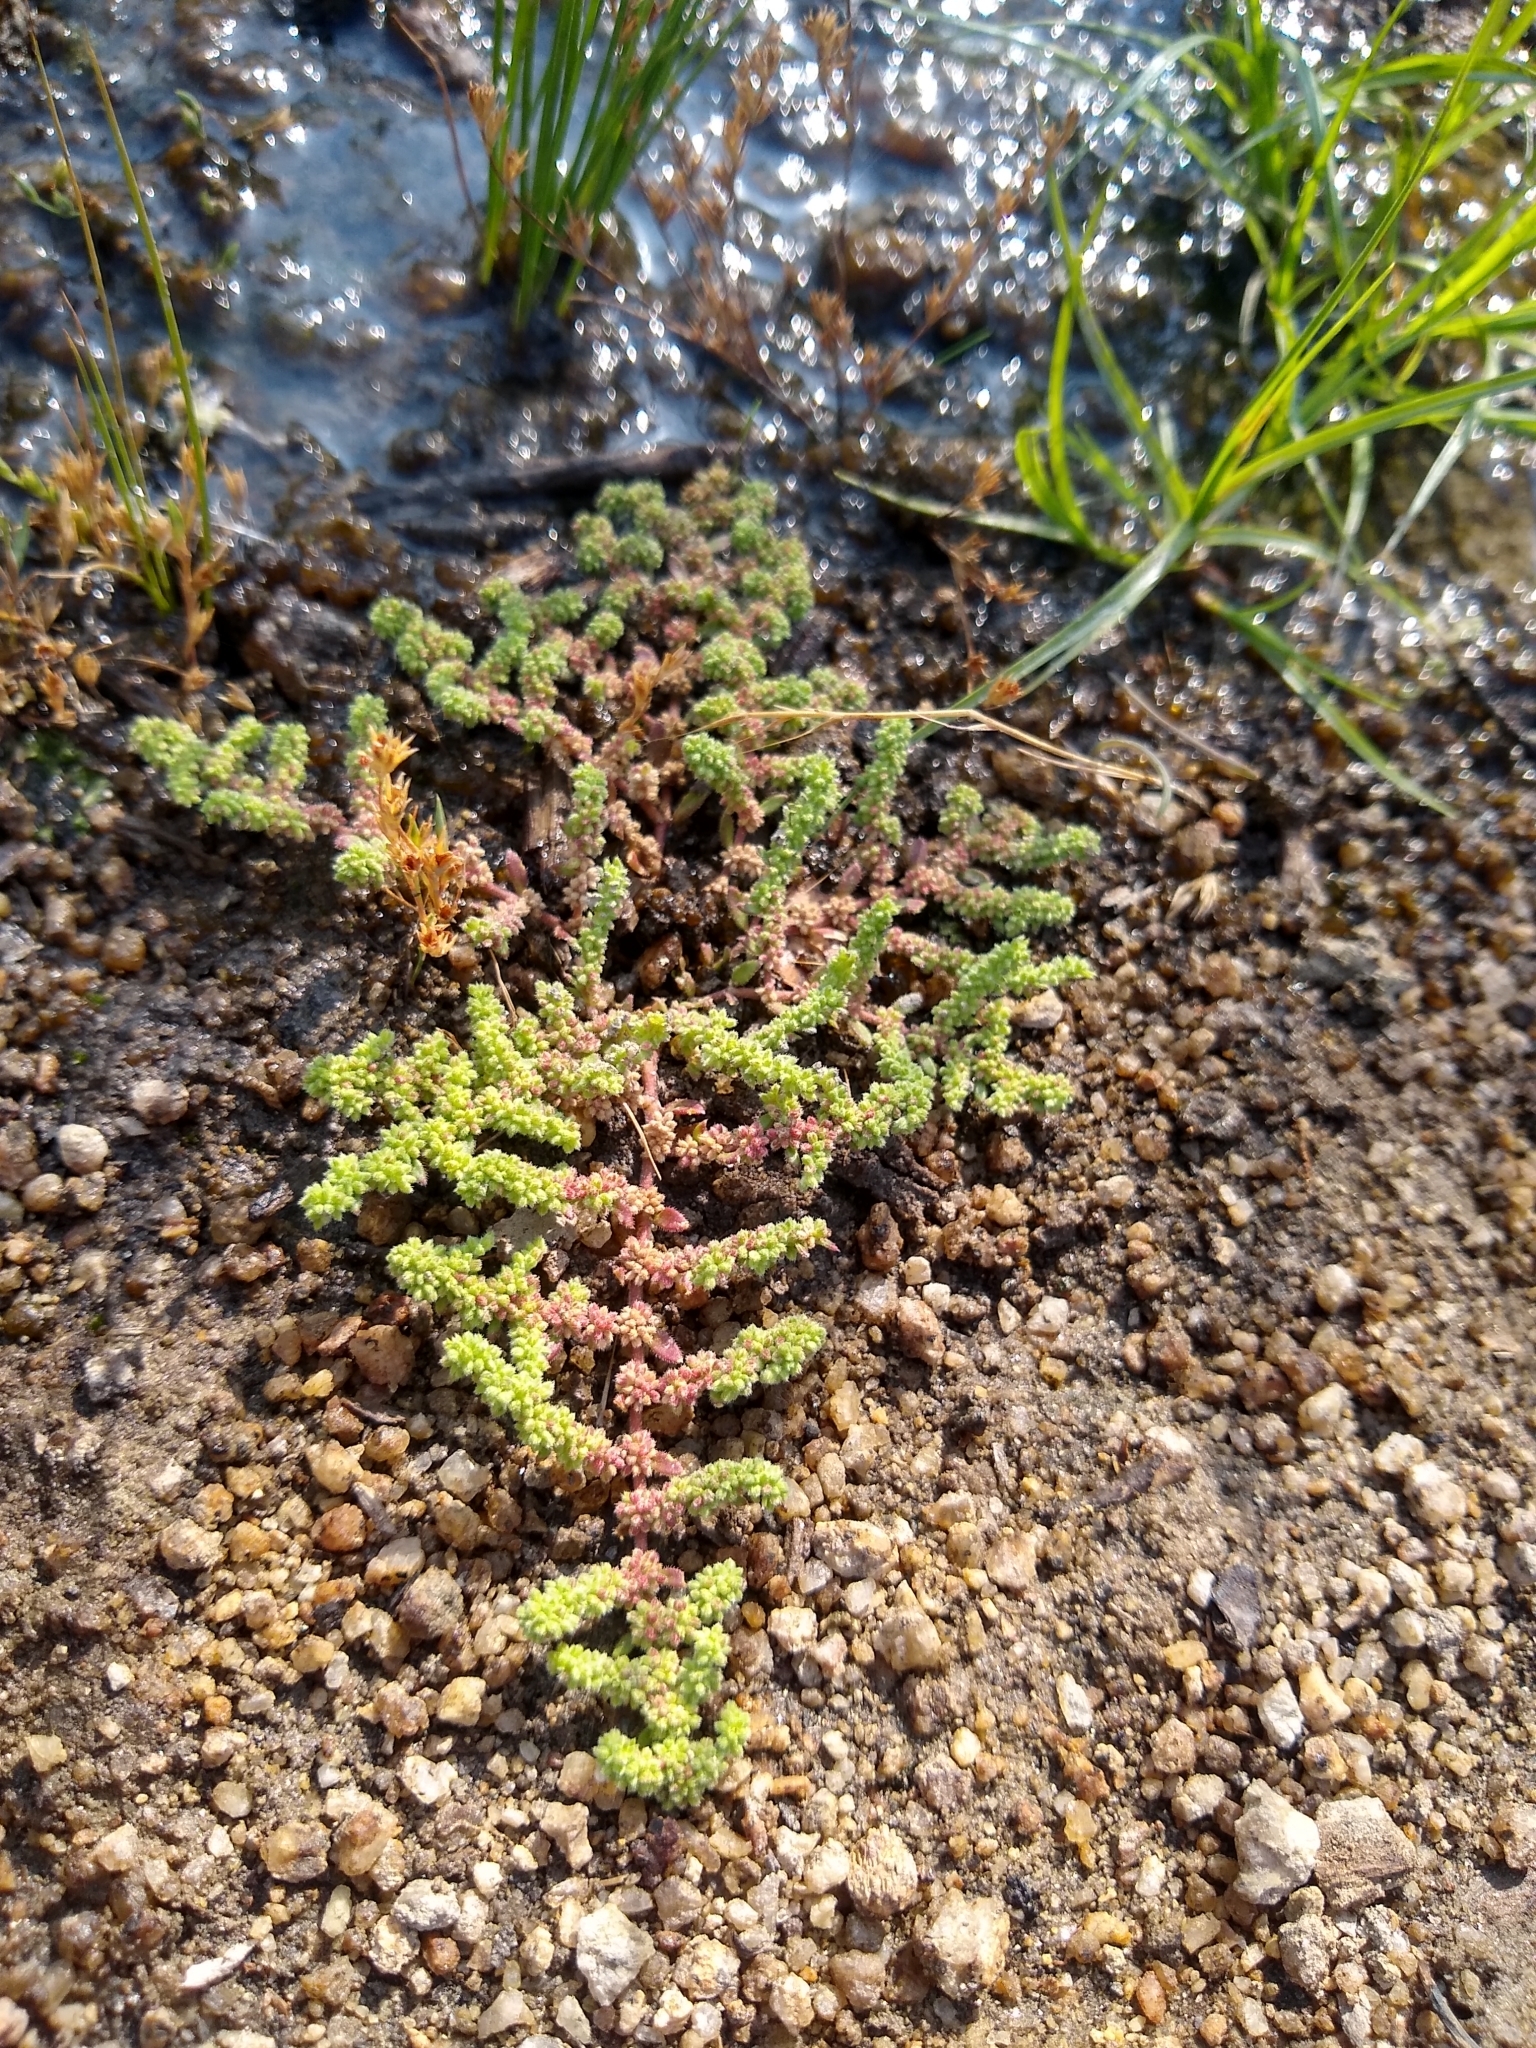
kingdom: Plantae
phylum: Tracheophyta
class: Magnoliopsida
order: Caryophyllales
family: Caryophyllaceae
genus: Herniaria
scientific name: Herniaria hirsuta
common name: Hairy rupturewort
